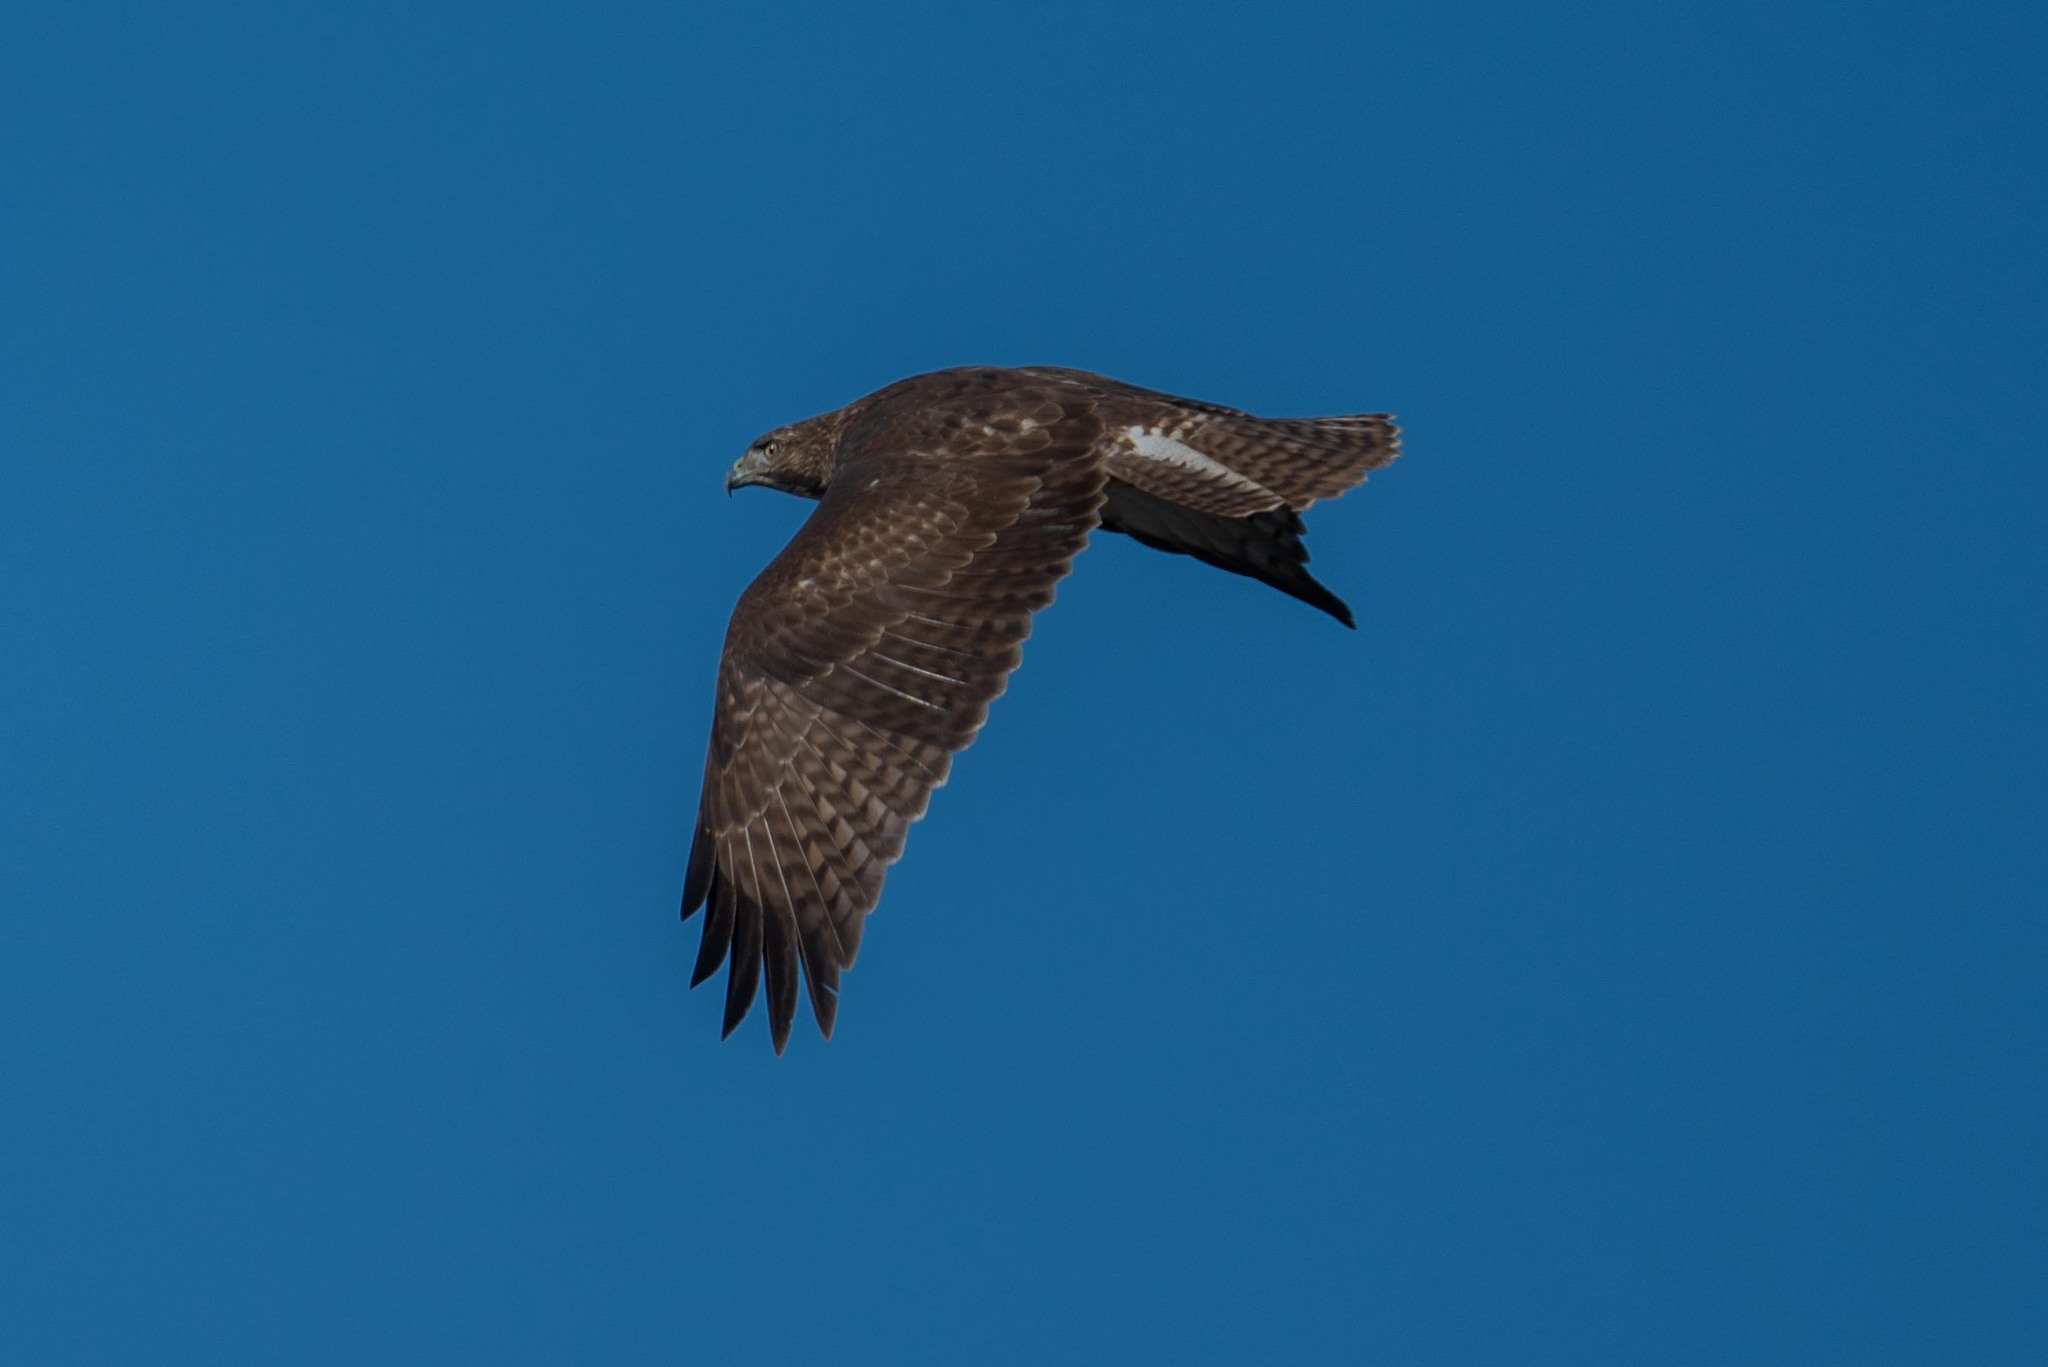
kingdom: Animalia
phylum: Chordata
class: Aves
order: Accipitriformes
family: Accipitridae
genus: Buteo
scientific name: Buteo jamaicensis
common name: Red-tailed hawk
